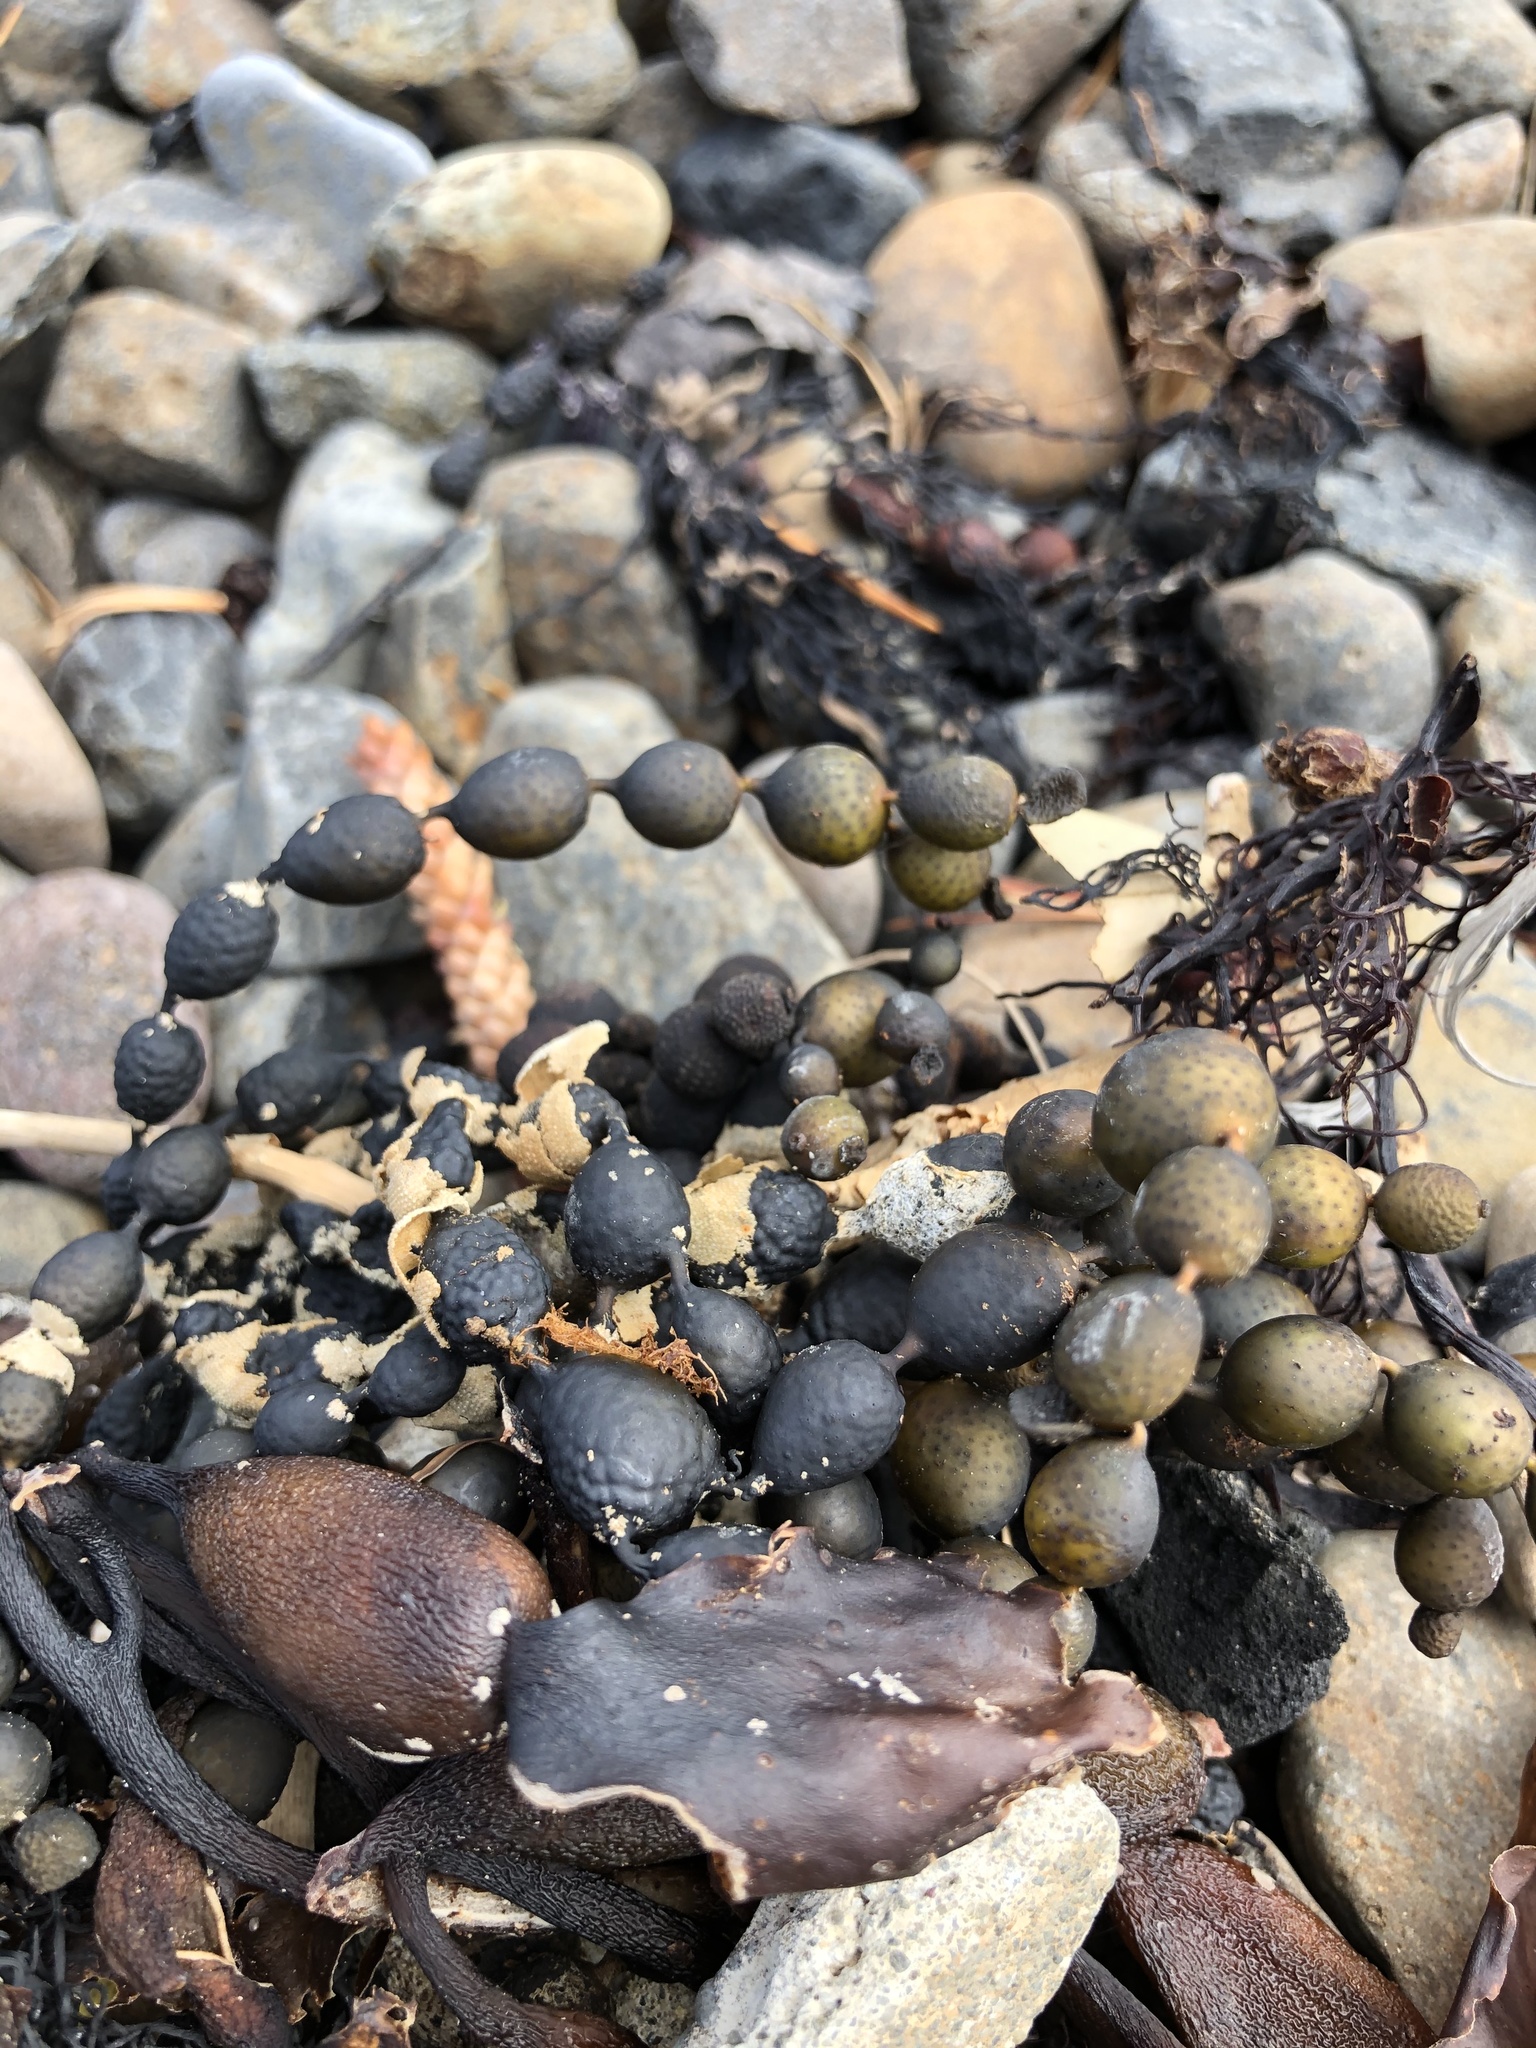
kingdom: Chromista
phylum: Ochrophyta
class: Phaeophyceae
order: Fucales
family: Hormosiraceae
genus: Hormosira
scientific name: Hormosira banksii
